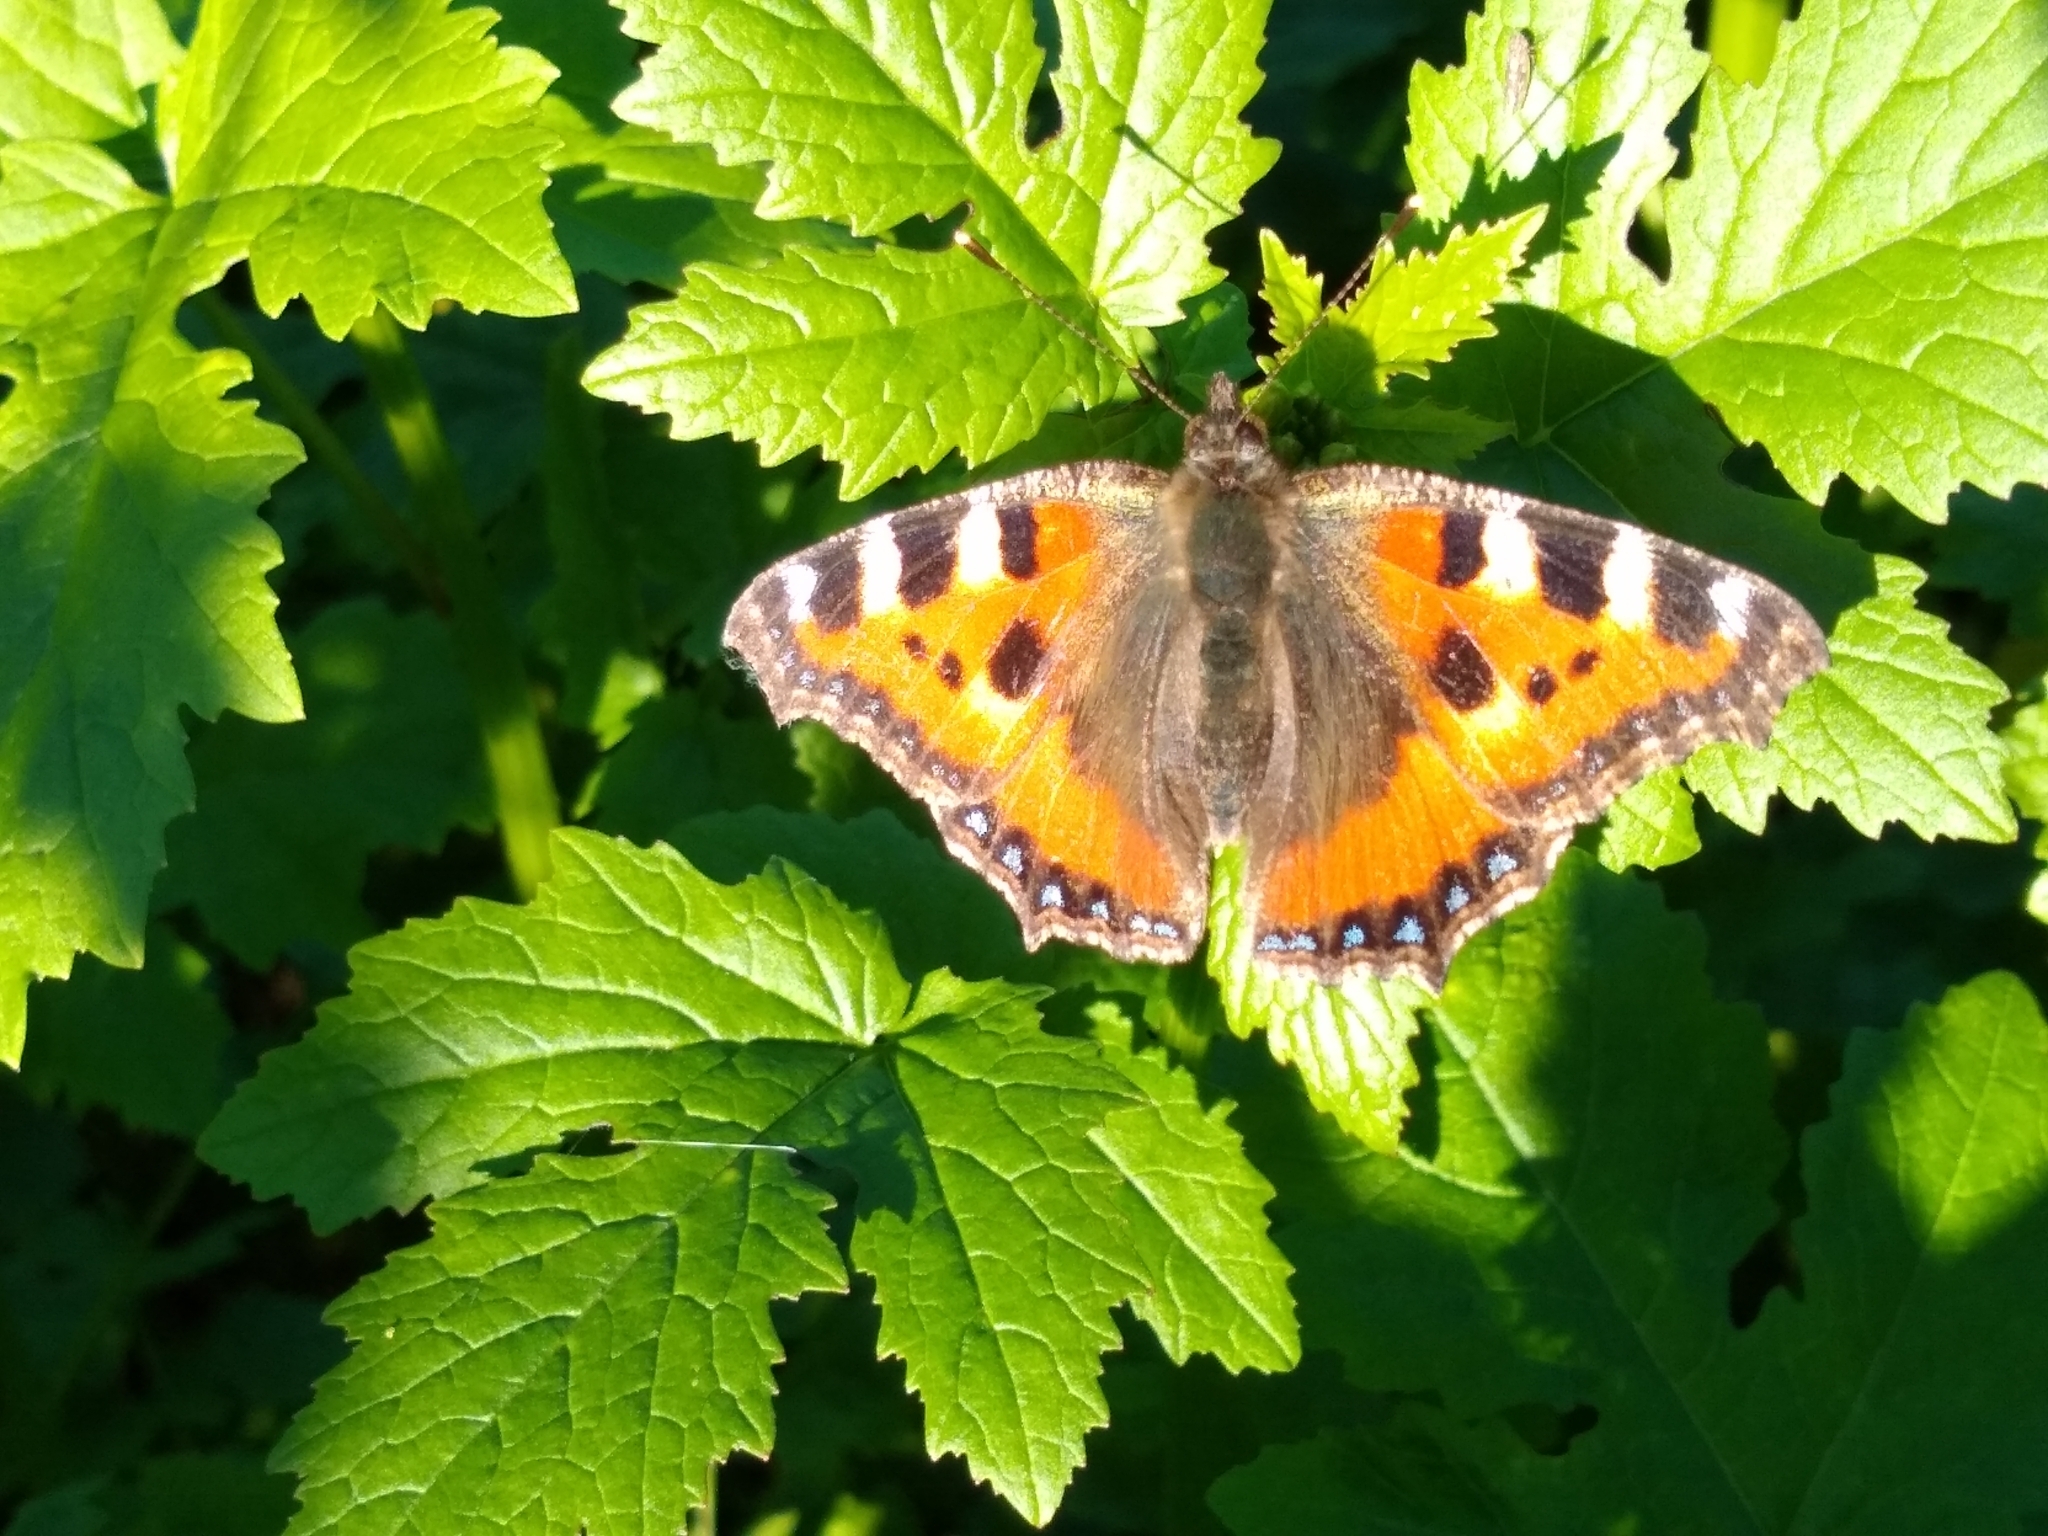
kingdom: Animalia
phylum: Arthropoda
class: Insecta
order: Lepidoptera
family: Nymphalidae
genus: Aglais
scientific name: Aglais urticae
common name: Small tortoiseshell
